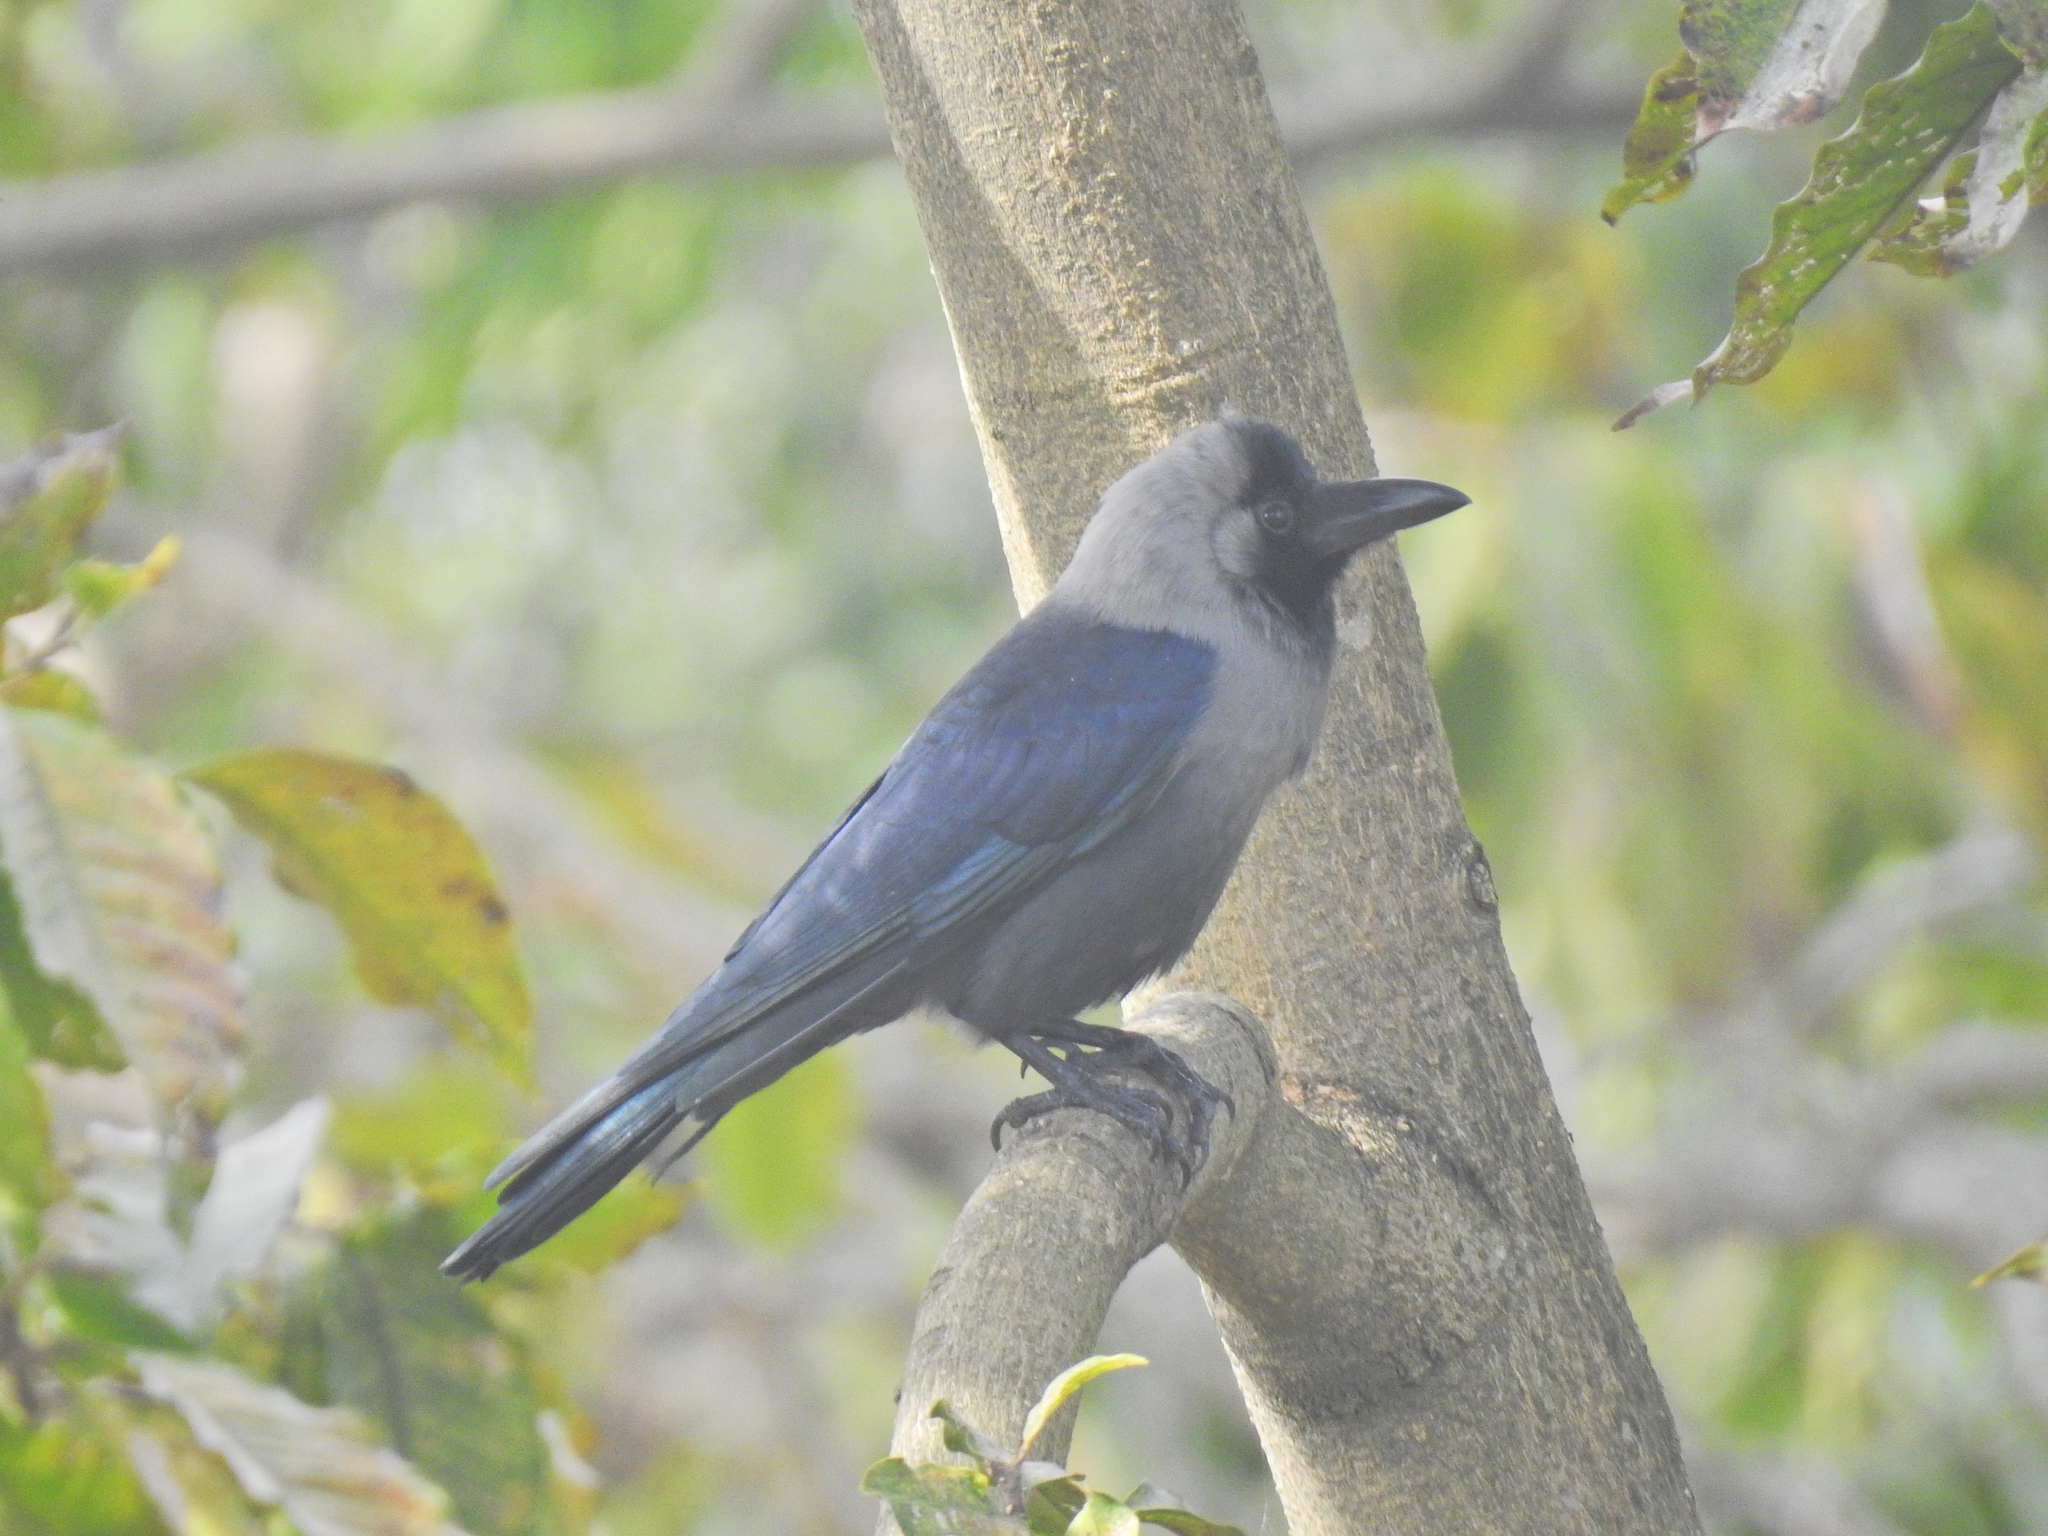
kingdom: Animalia
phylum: Chordata
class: Aves
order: Passeriformes
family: Corvidae
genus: Corvus
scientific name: Corvus splendens
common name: House crow
